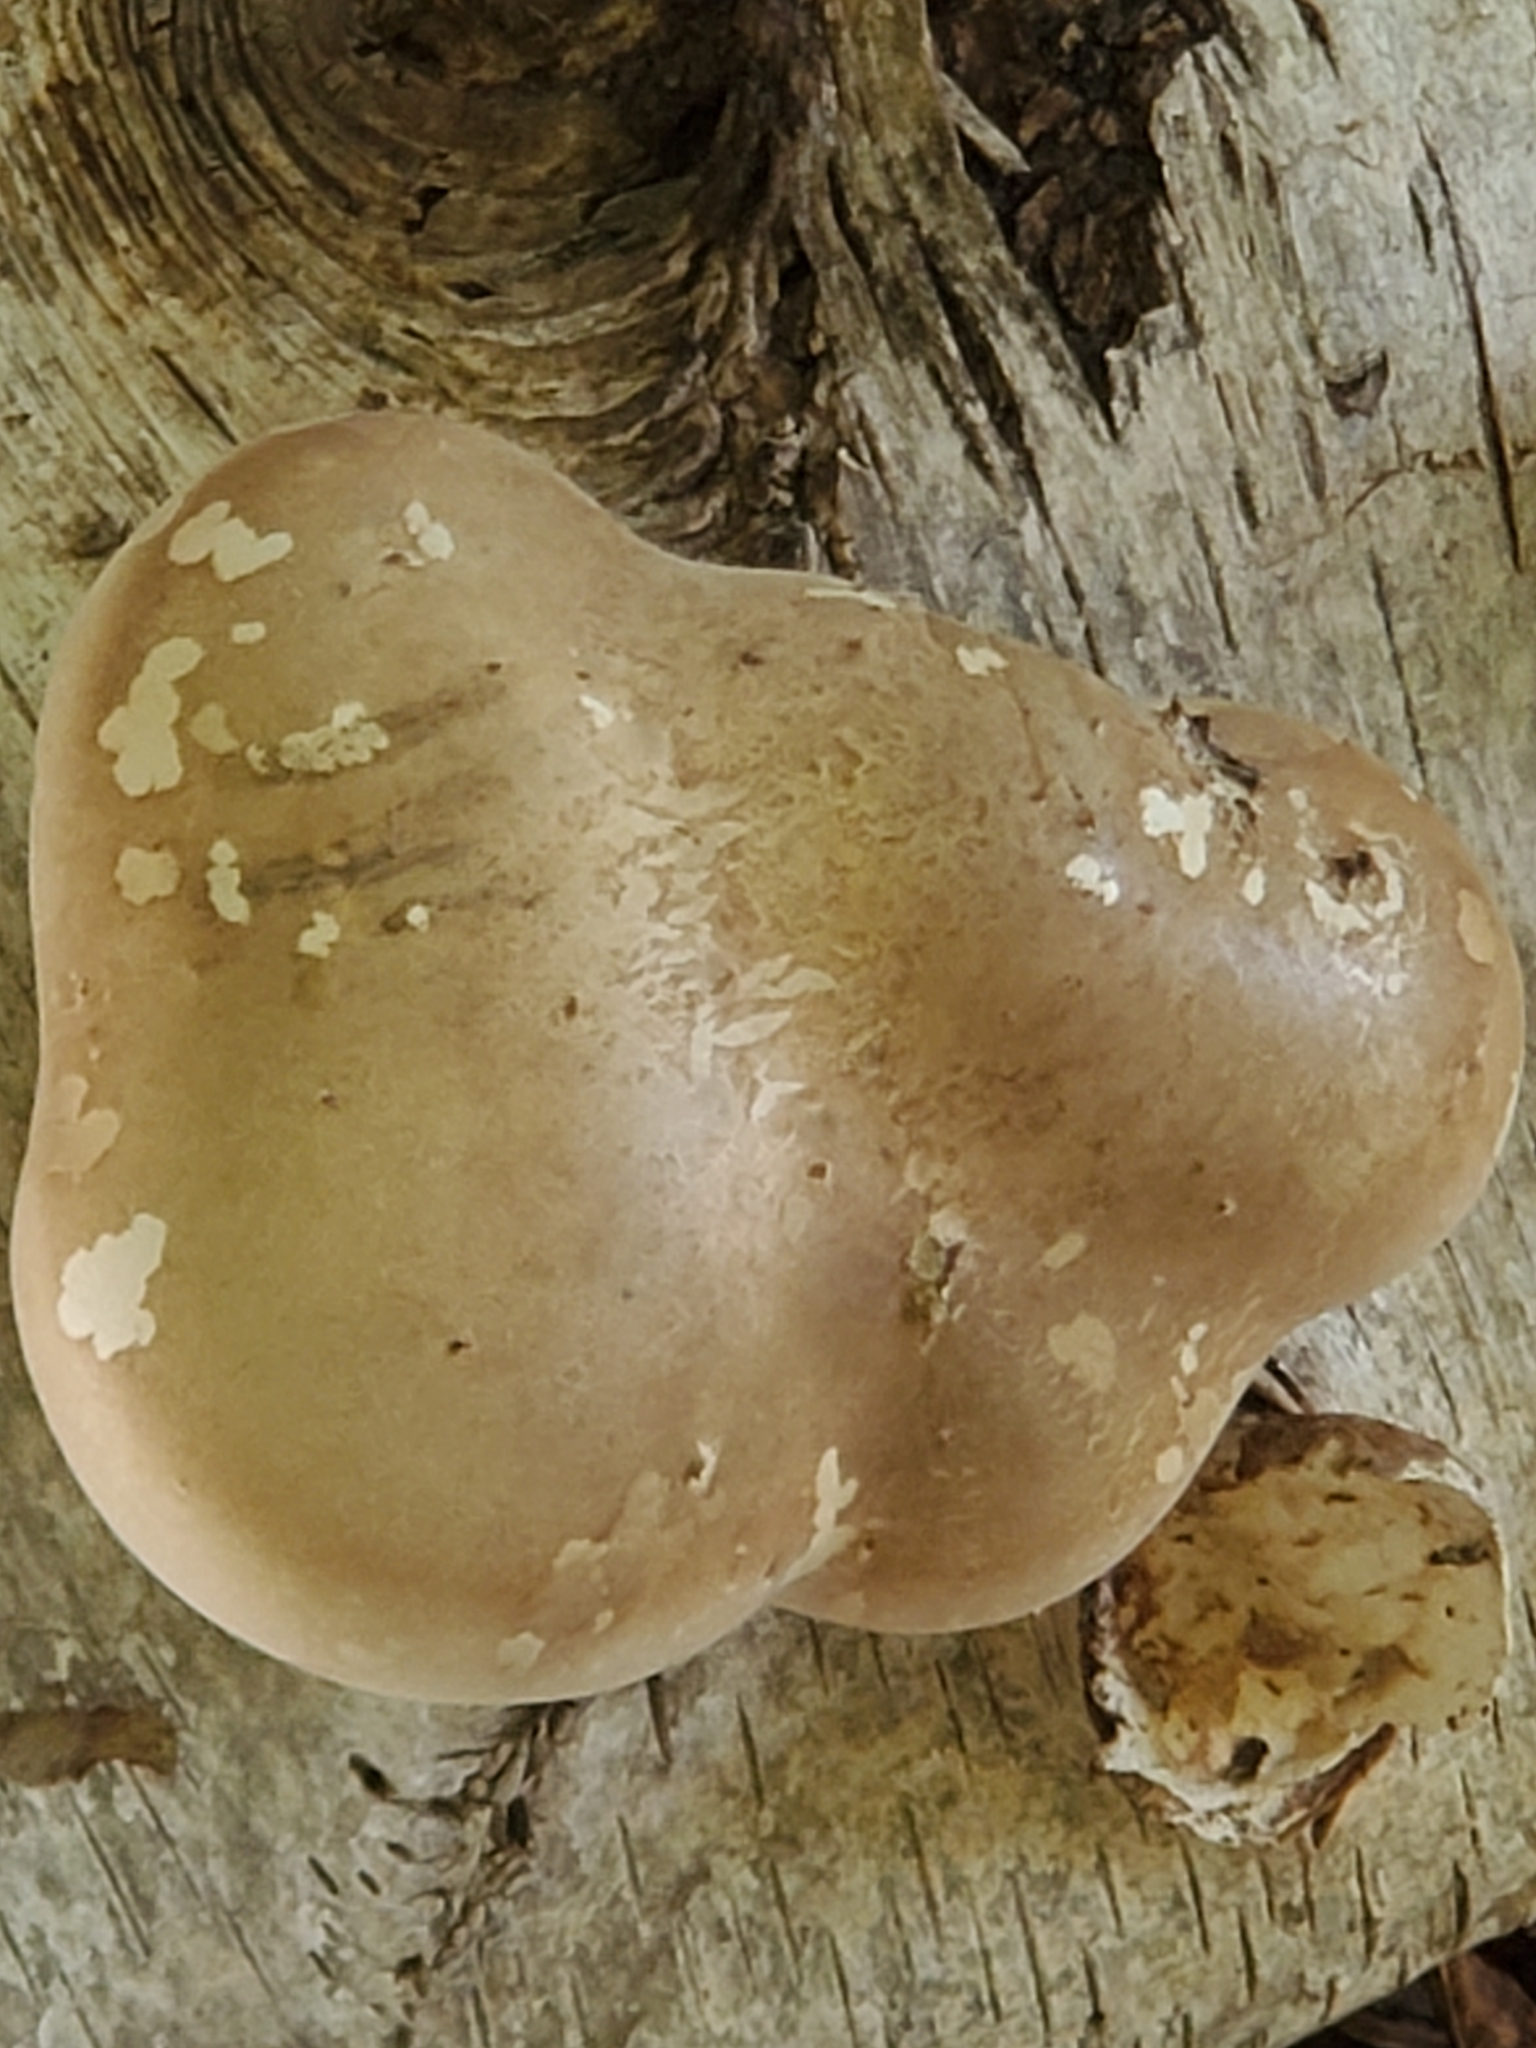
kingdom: Fungi
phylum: Basidiomycota
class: Agaricomycetes
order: Polyporales
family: Fomitopsidaceae
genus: Fomitopsis
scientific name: Fomitopsis betulina
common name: Birch polypore
